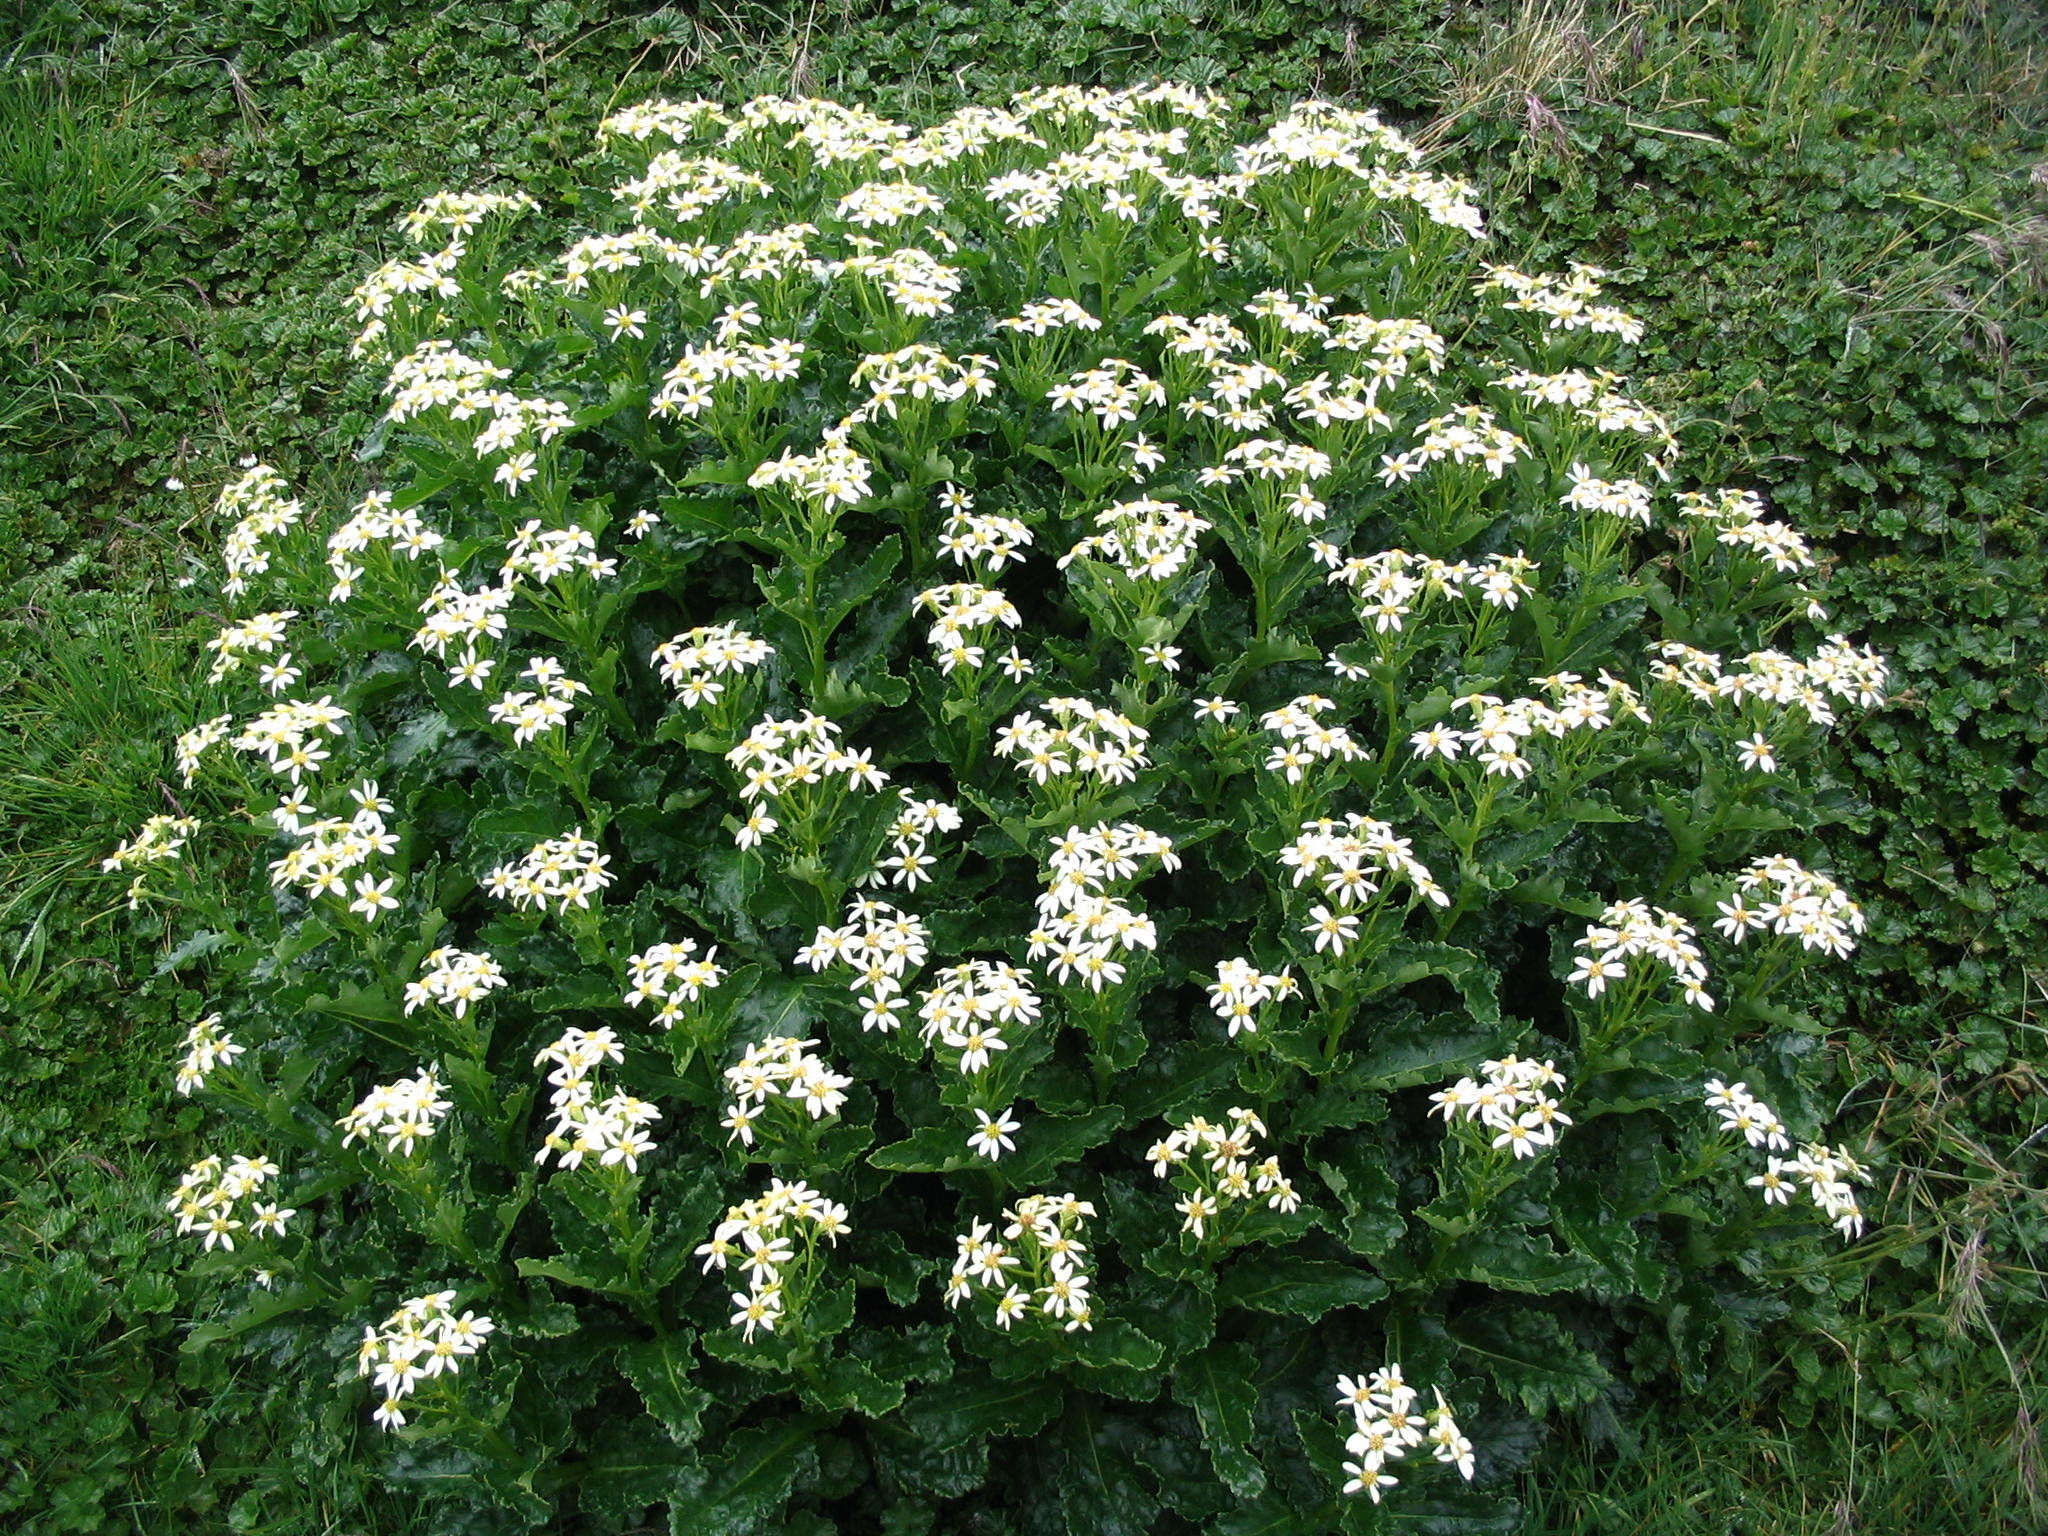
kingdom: Plantae
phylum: Tracheophyta
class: Magnoliopsida
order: Asterales
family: Asteraceae
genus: Iocenes
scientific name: Iocenes virens
